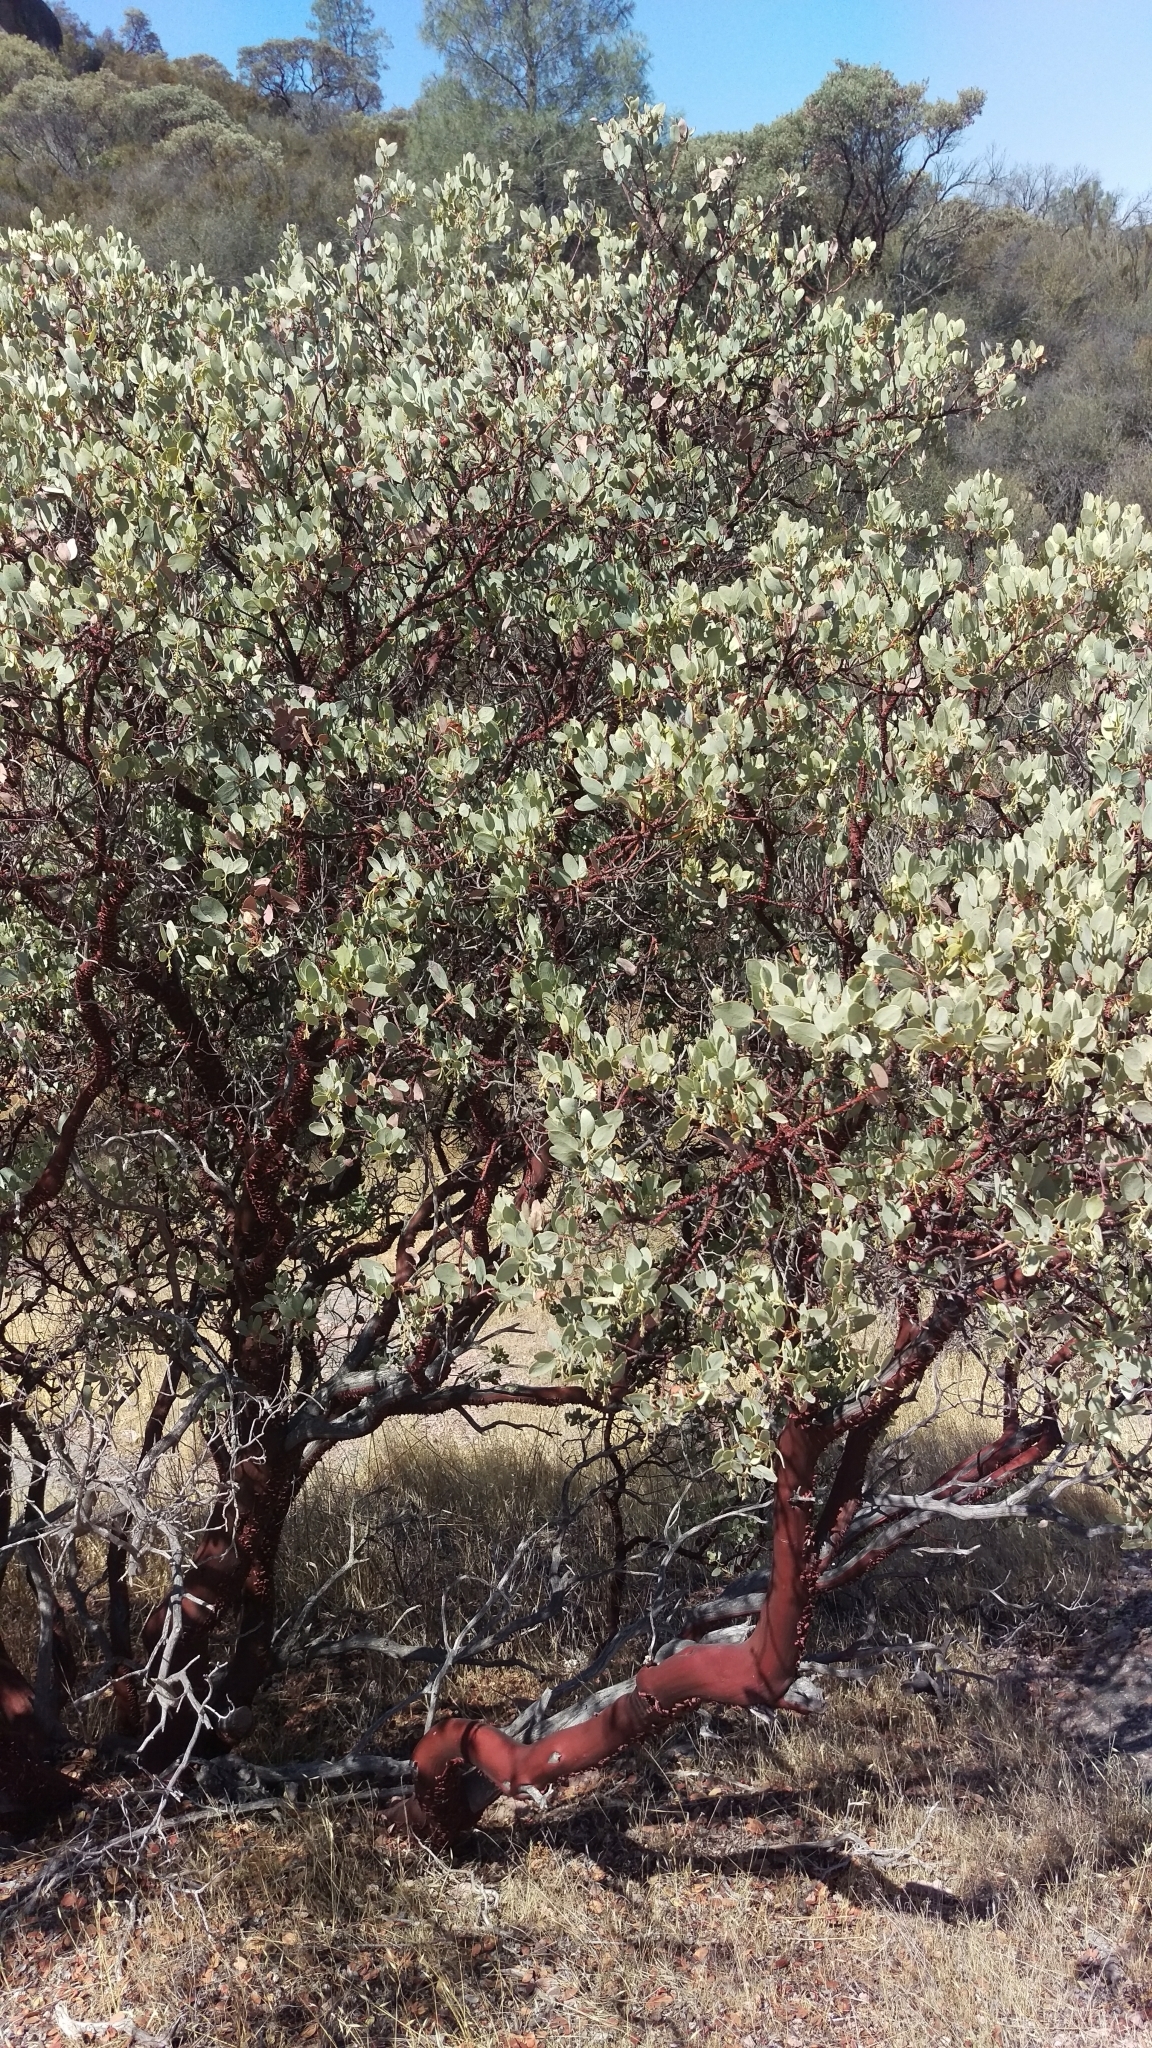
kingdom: Plantae
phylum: Tracheophyta
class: Magnoliopsida
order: Ericales
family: Ericaceae
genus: Arctostaphylos
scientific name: Arctostaphylos glauca
